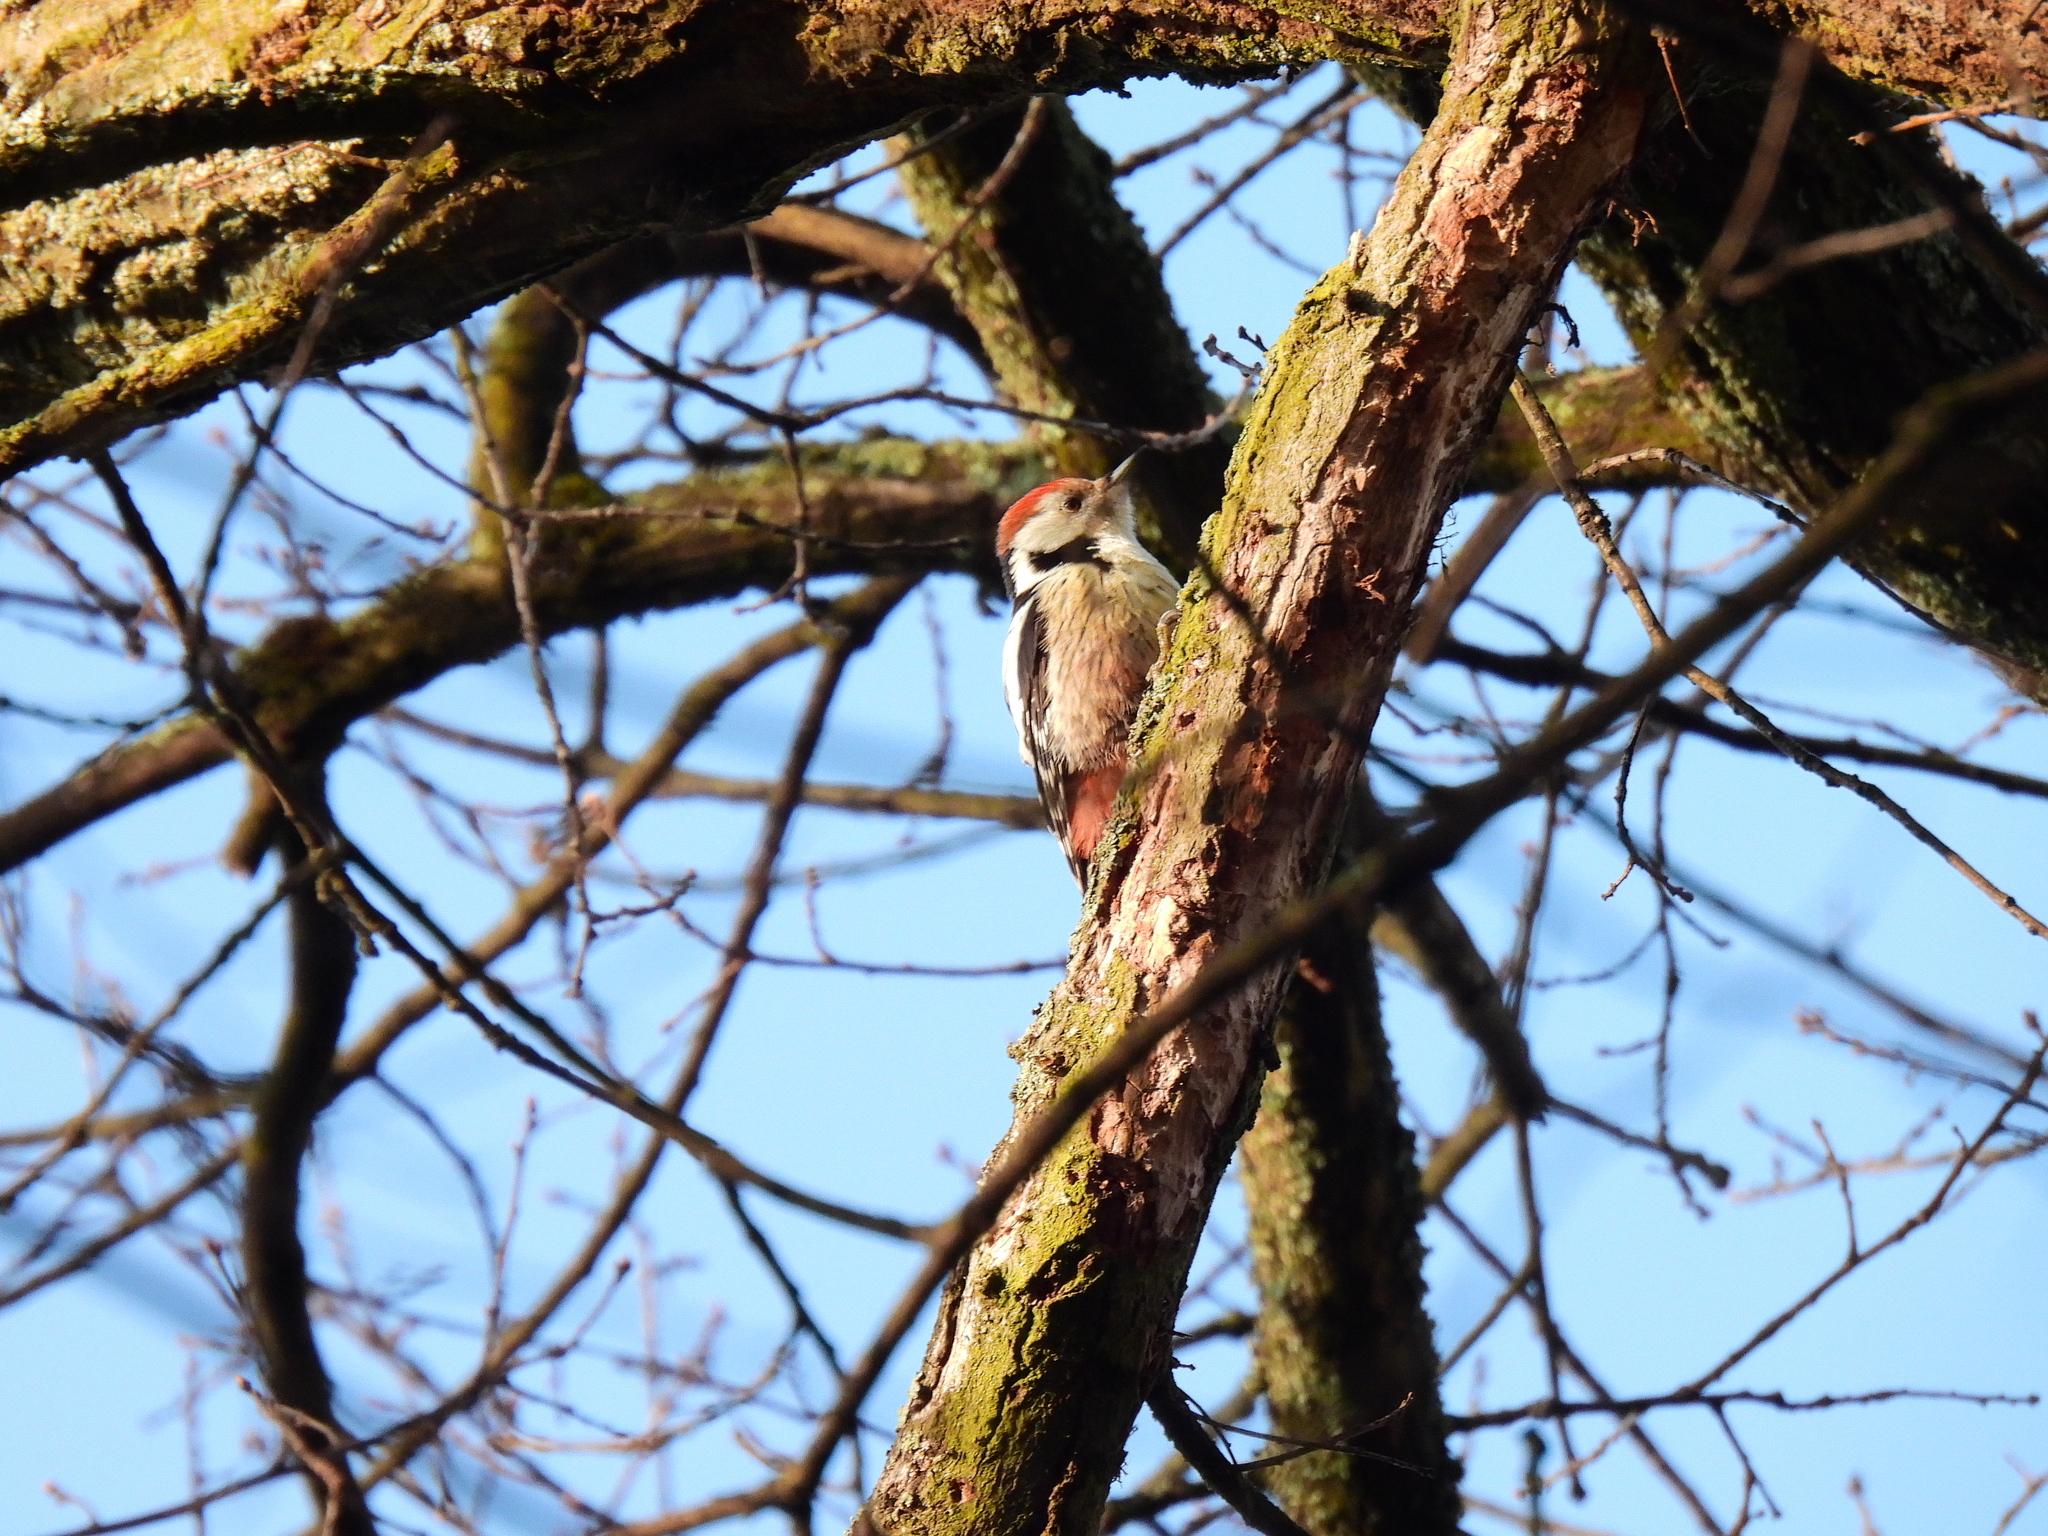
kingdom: Animalia
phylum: Chordata
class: Aves
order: Piciformes
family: Picidae
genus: Dendrocoptes
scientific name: Dendrocoptes medius
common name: Middle spotted woodpecker
